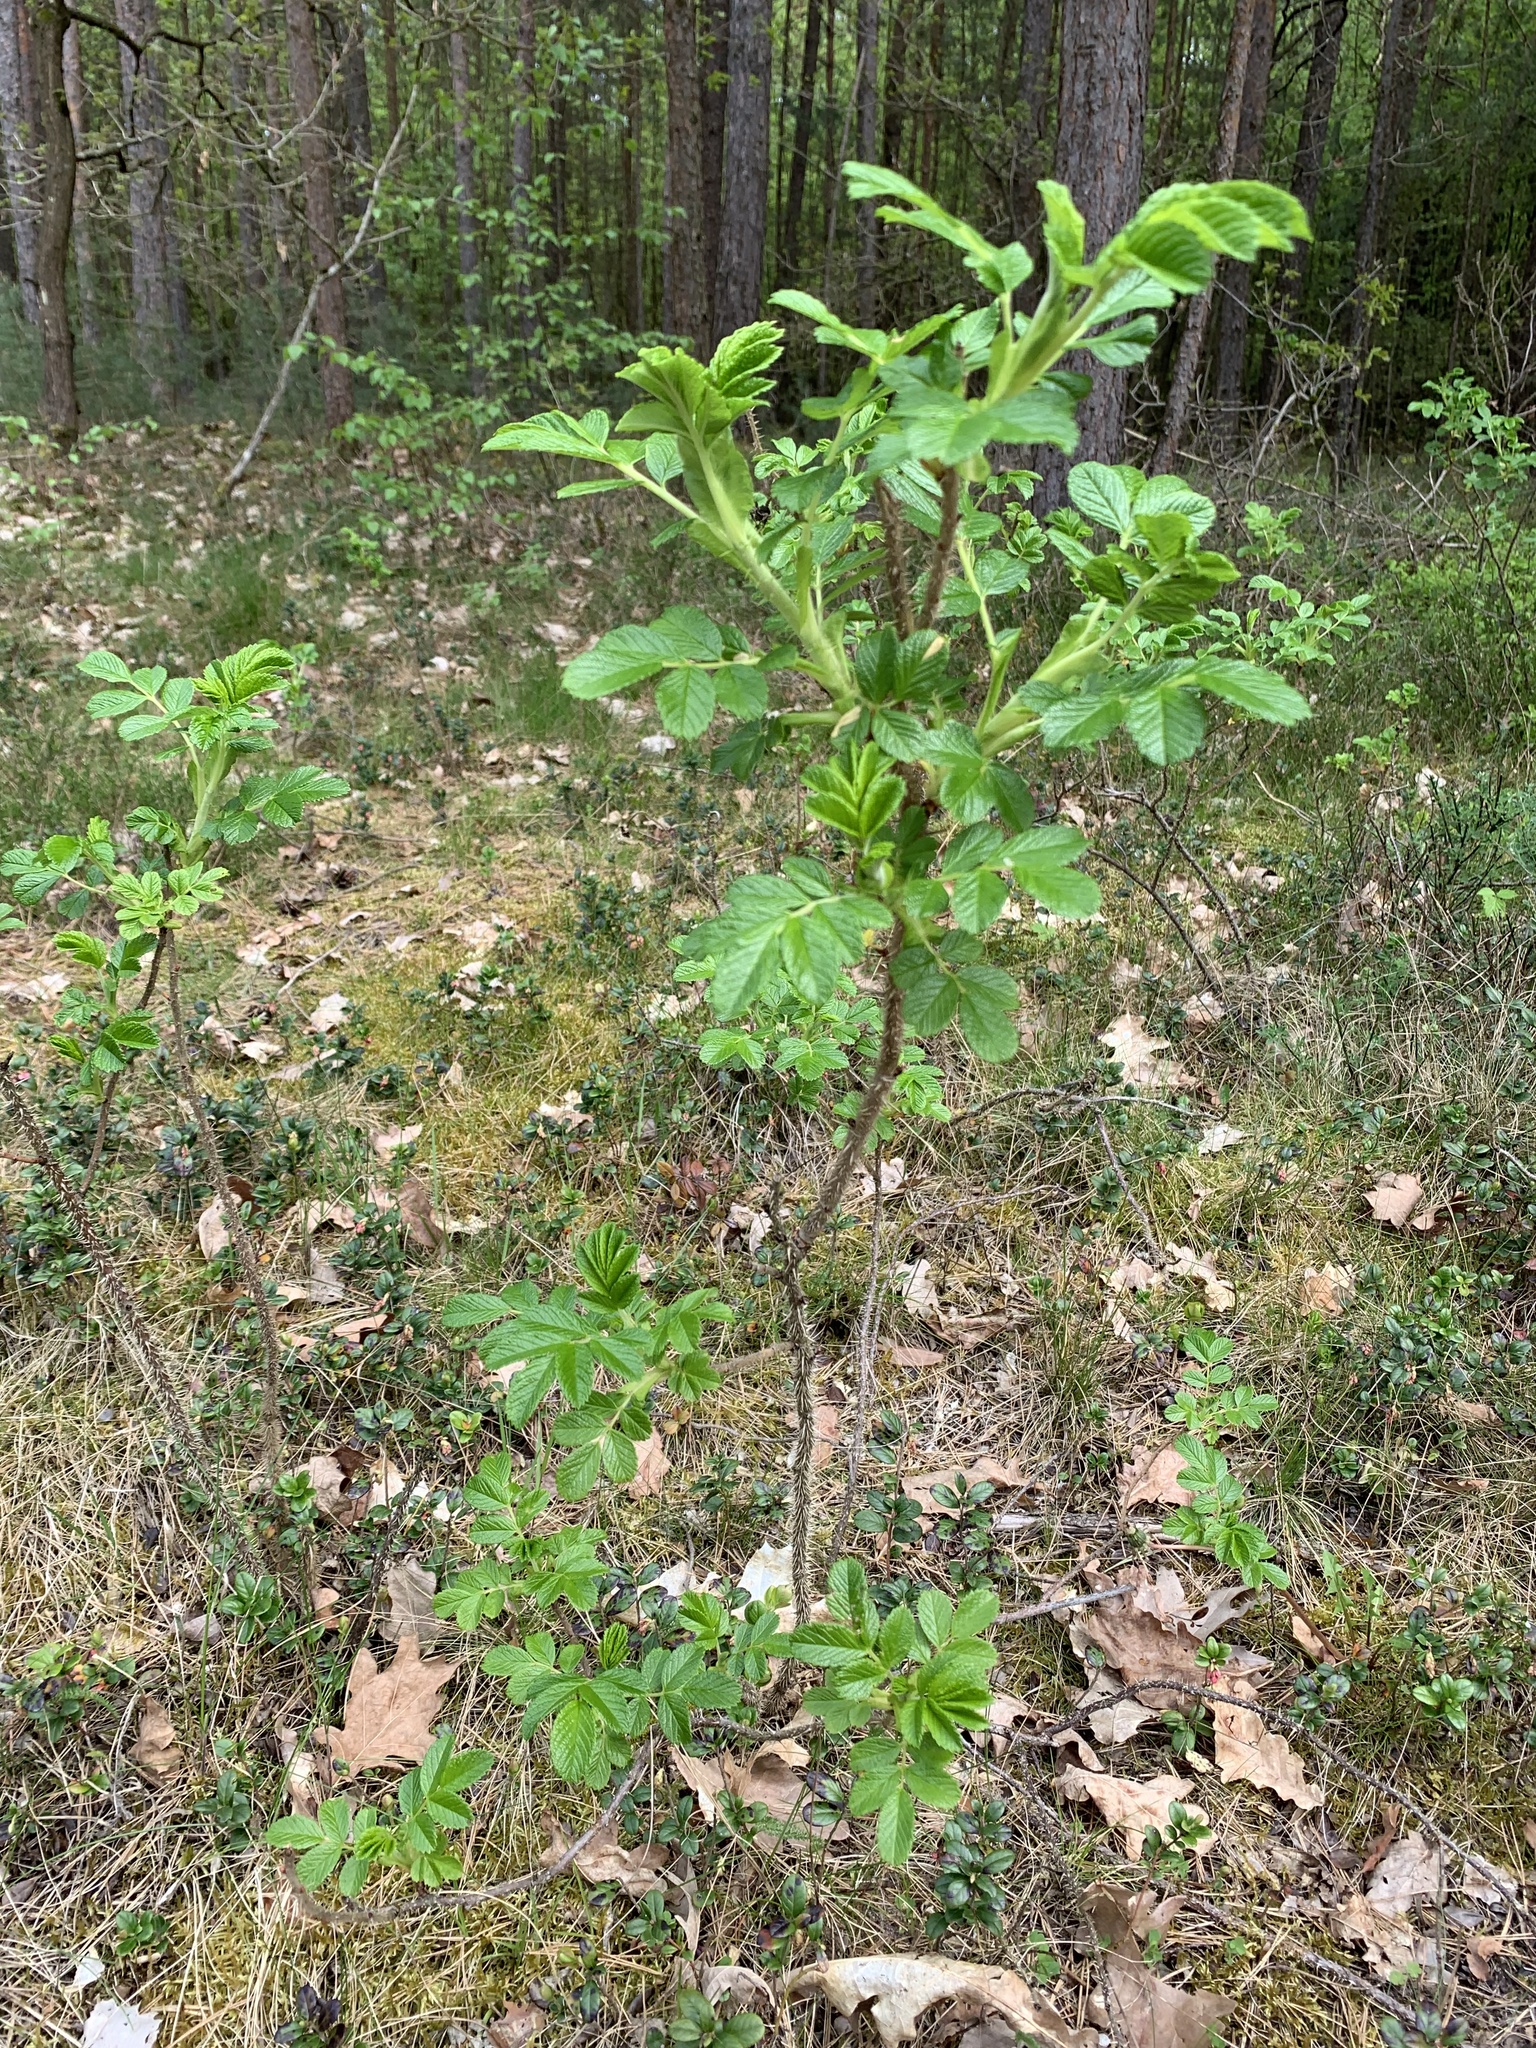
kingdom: Plantae
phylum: Tracheophyta
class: Magnoliopsida
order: Rosales
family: Rosaceae
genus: Rosa
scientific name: Rosa rugosa
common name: Japanese rose
